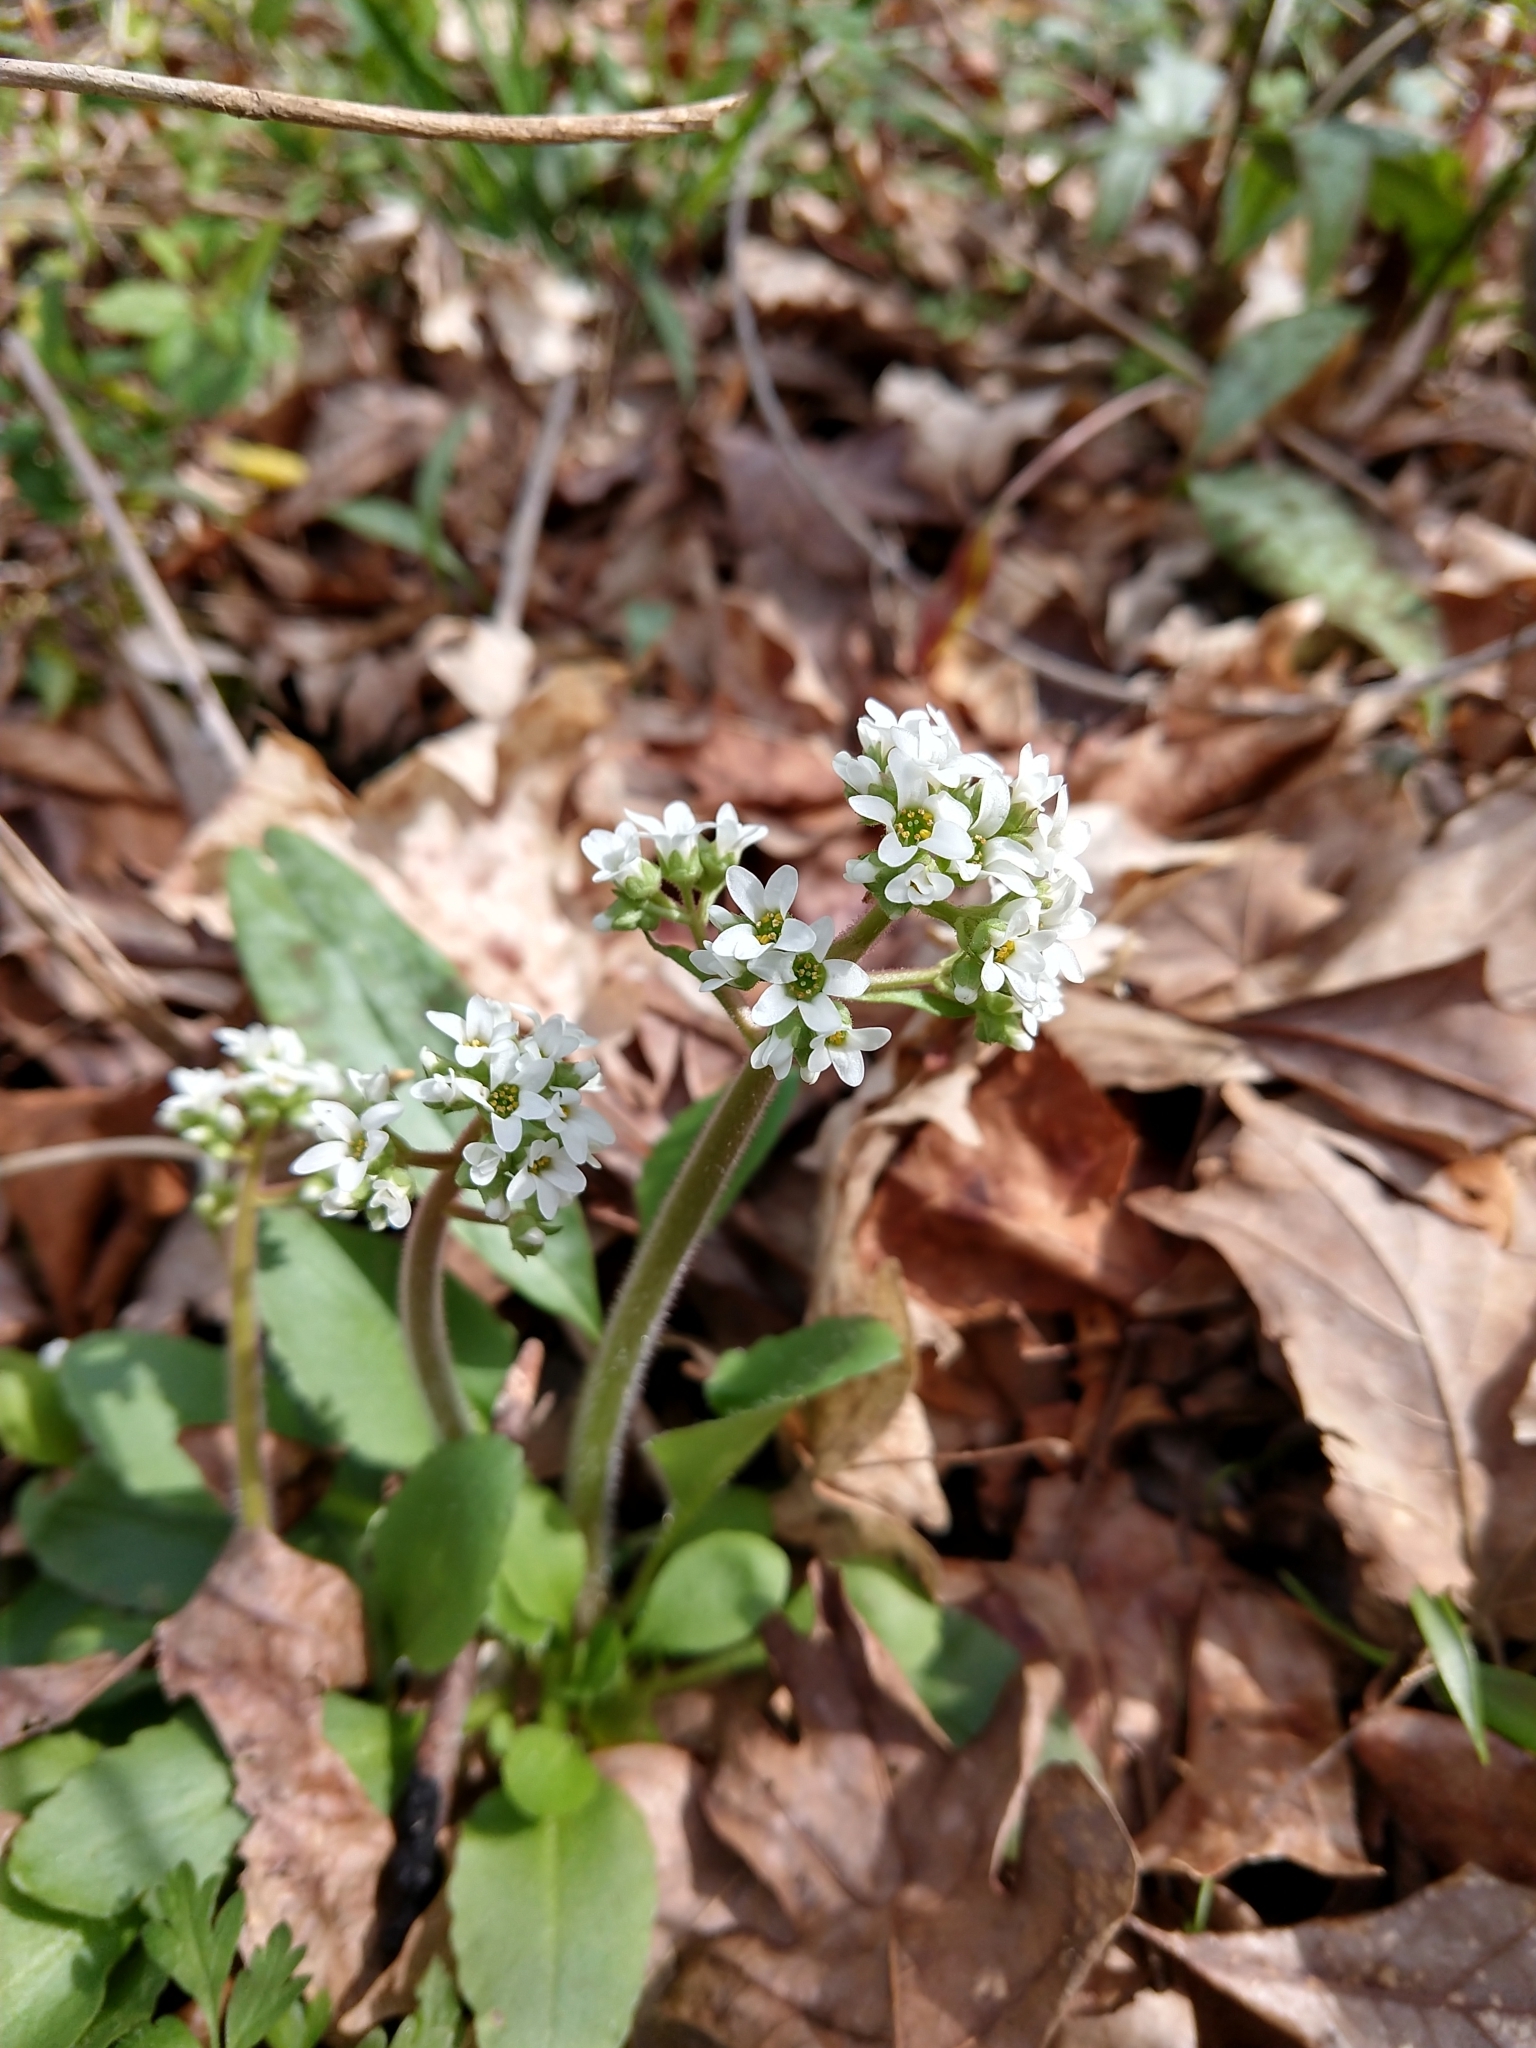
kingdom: Plantae
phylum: Tracheophyta
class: Magnoliopsida
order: Saxifragales
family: Saxifragaceae
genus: Micranthes
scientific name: Micranthes virginiensis
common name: Early saxifrage
